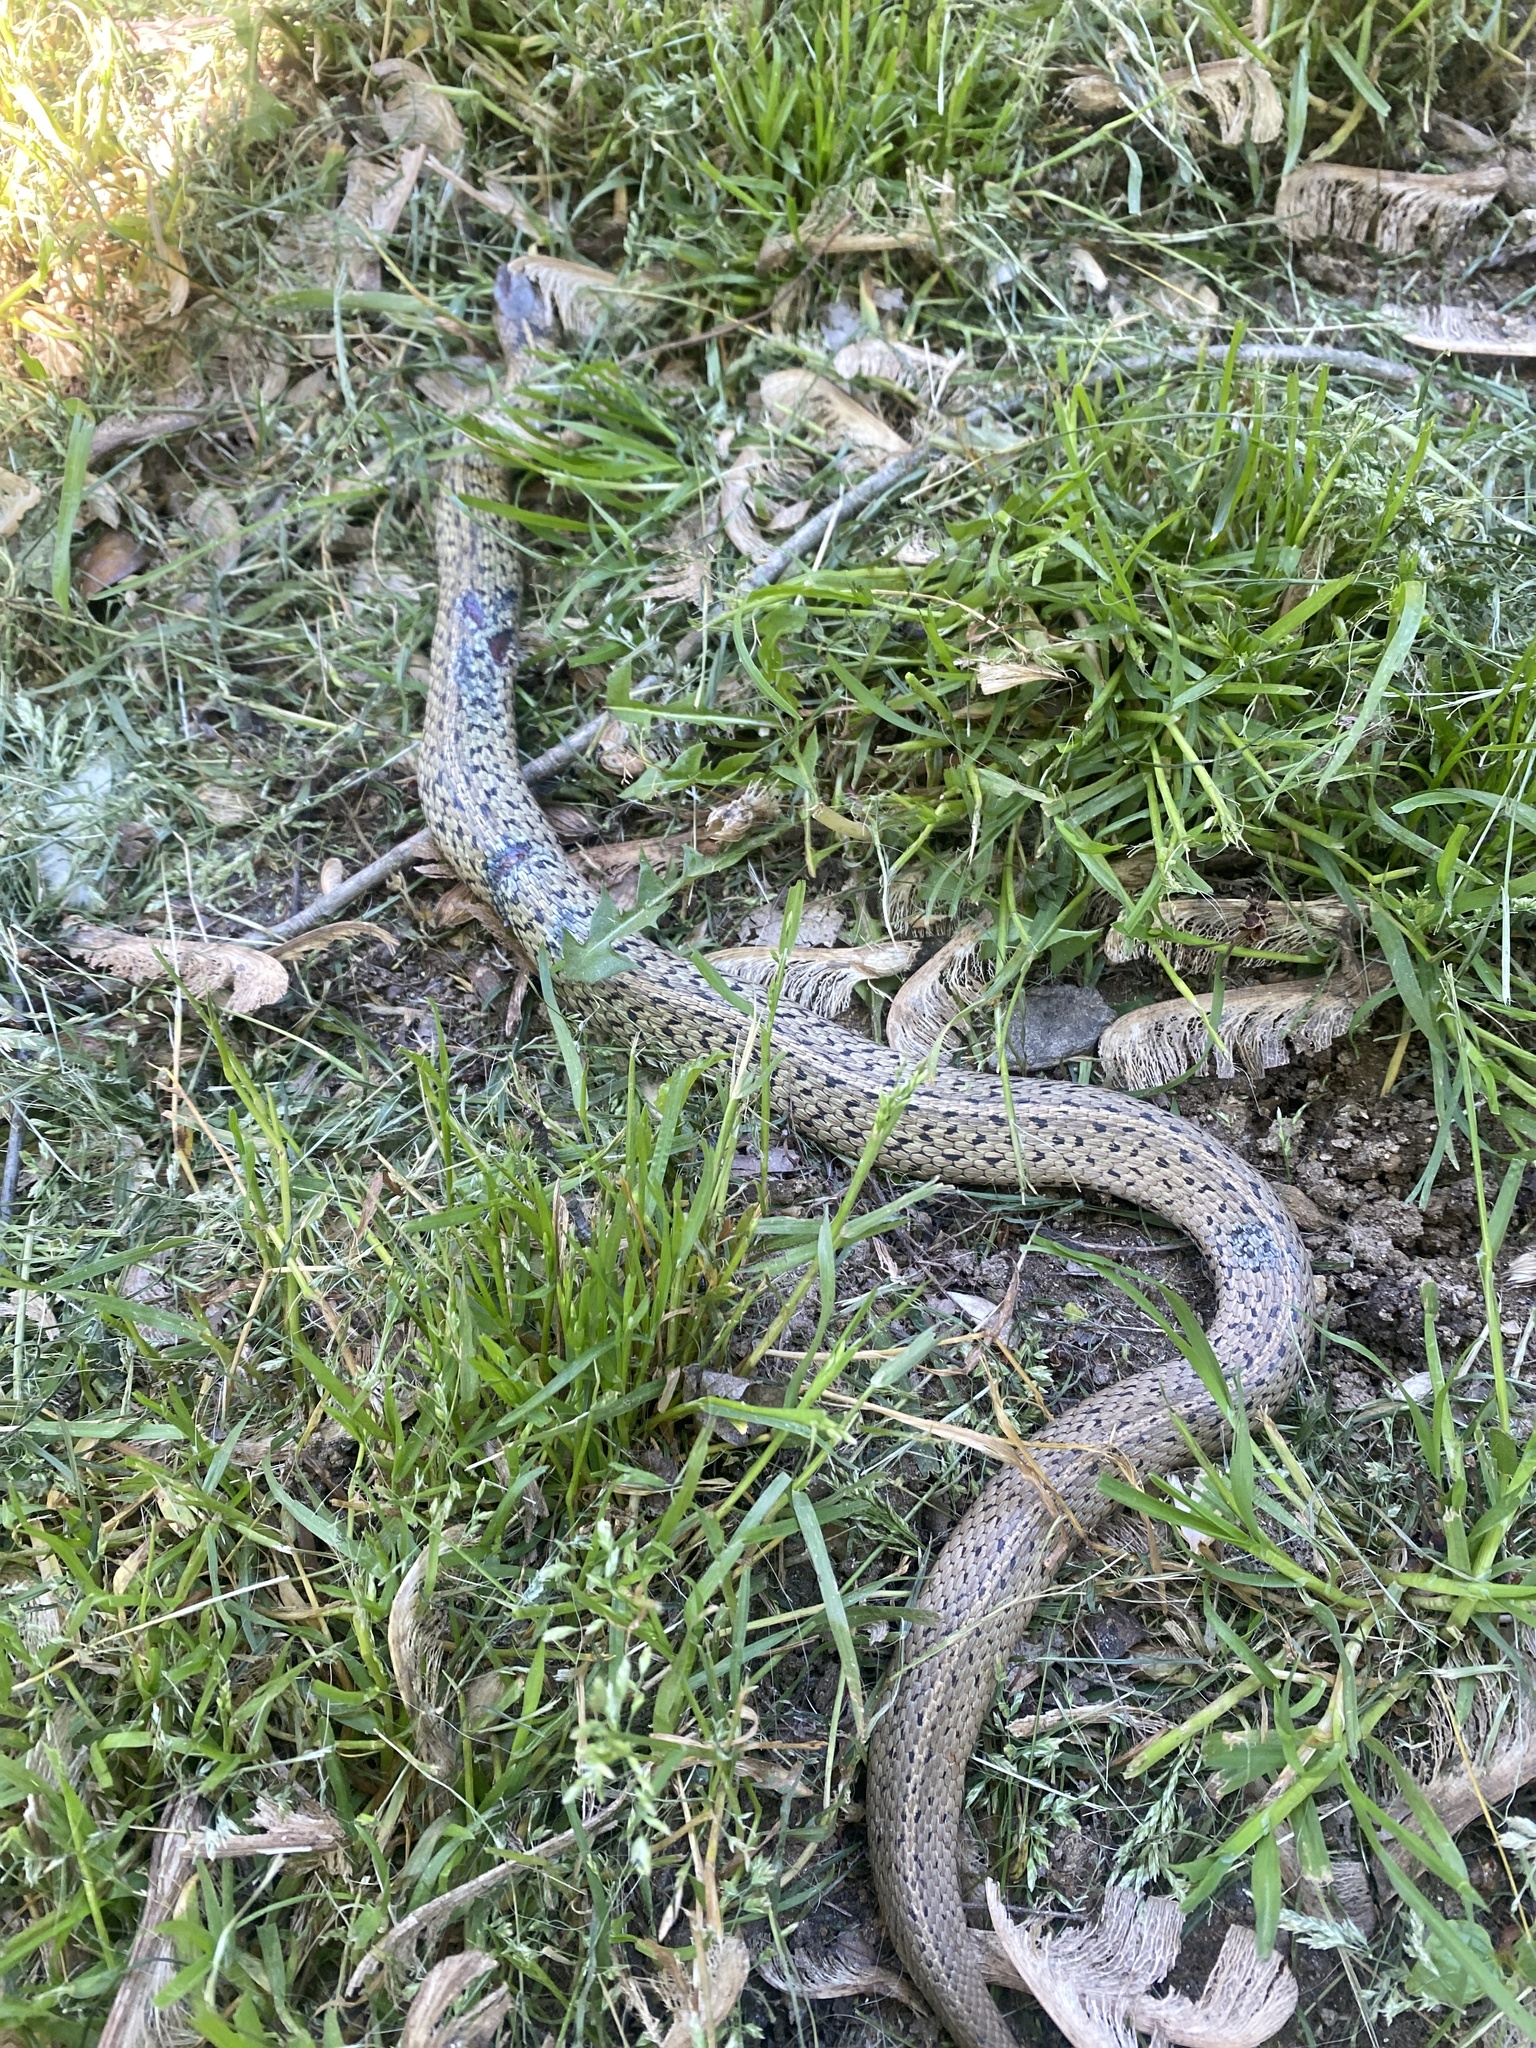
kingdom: Animalia
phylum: Chordata
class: Squamata
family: Colubridae
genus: Thamnophis
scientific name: Thamnophis sirtalis
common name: Common garter snake
